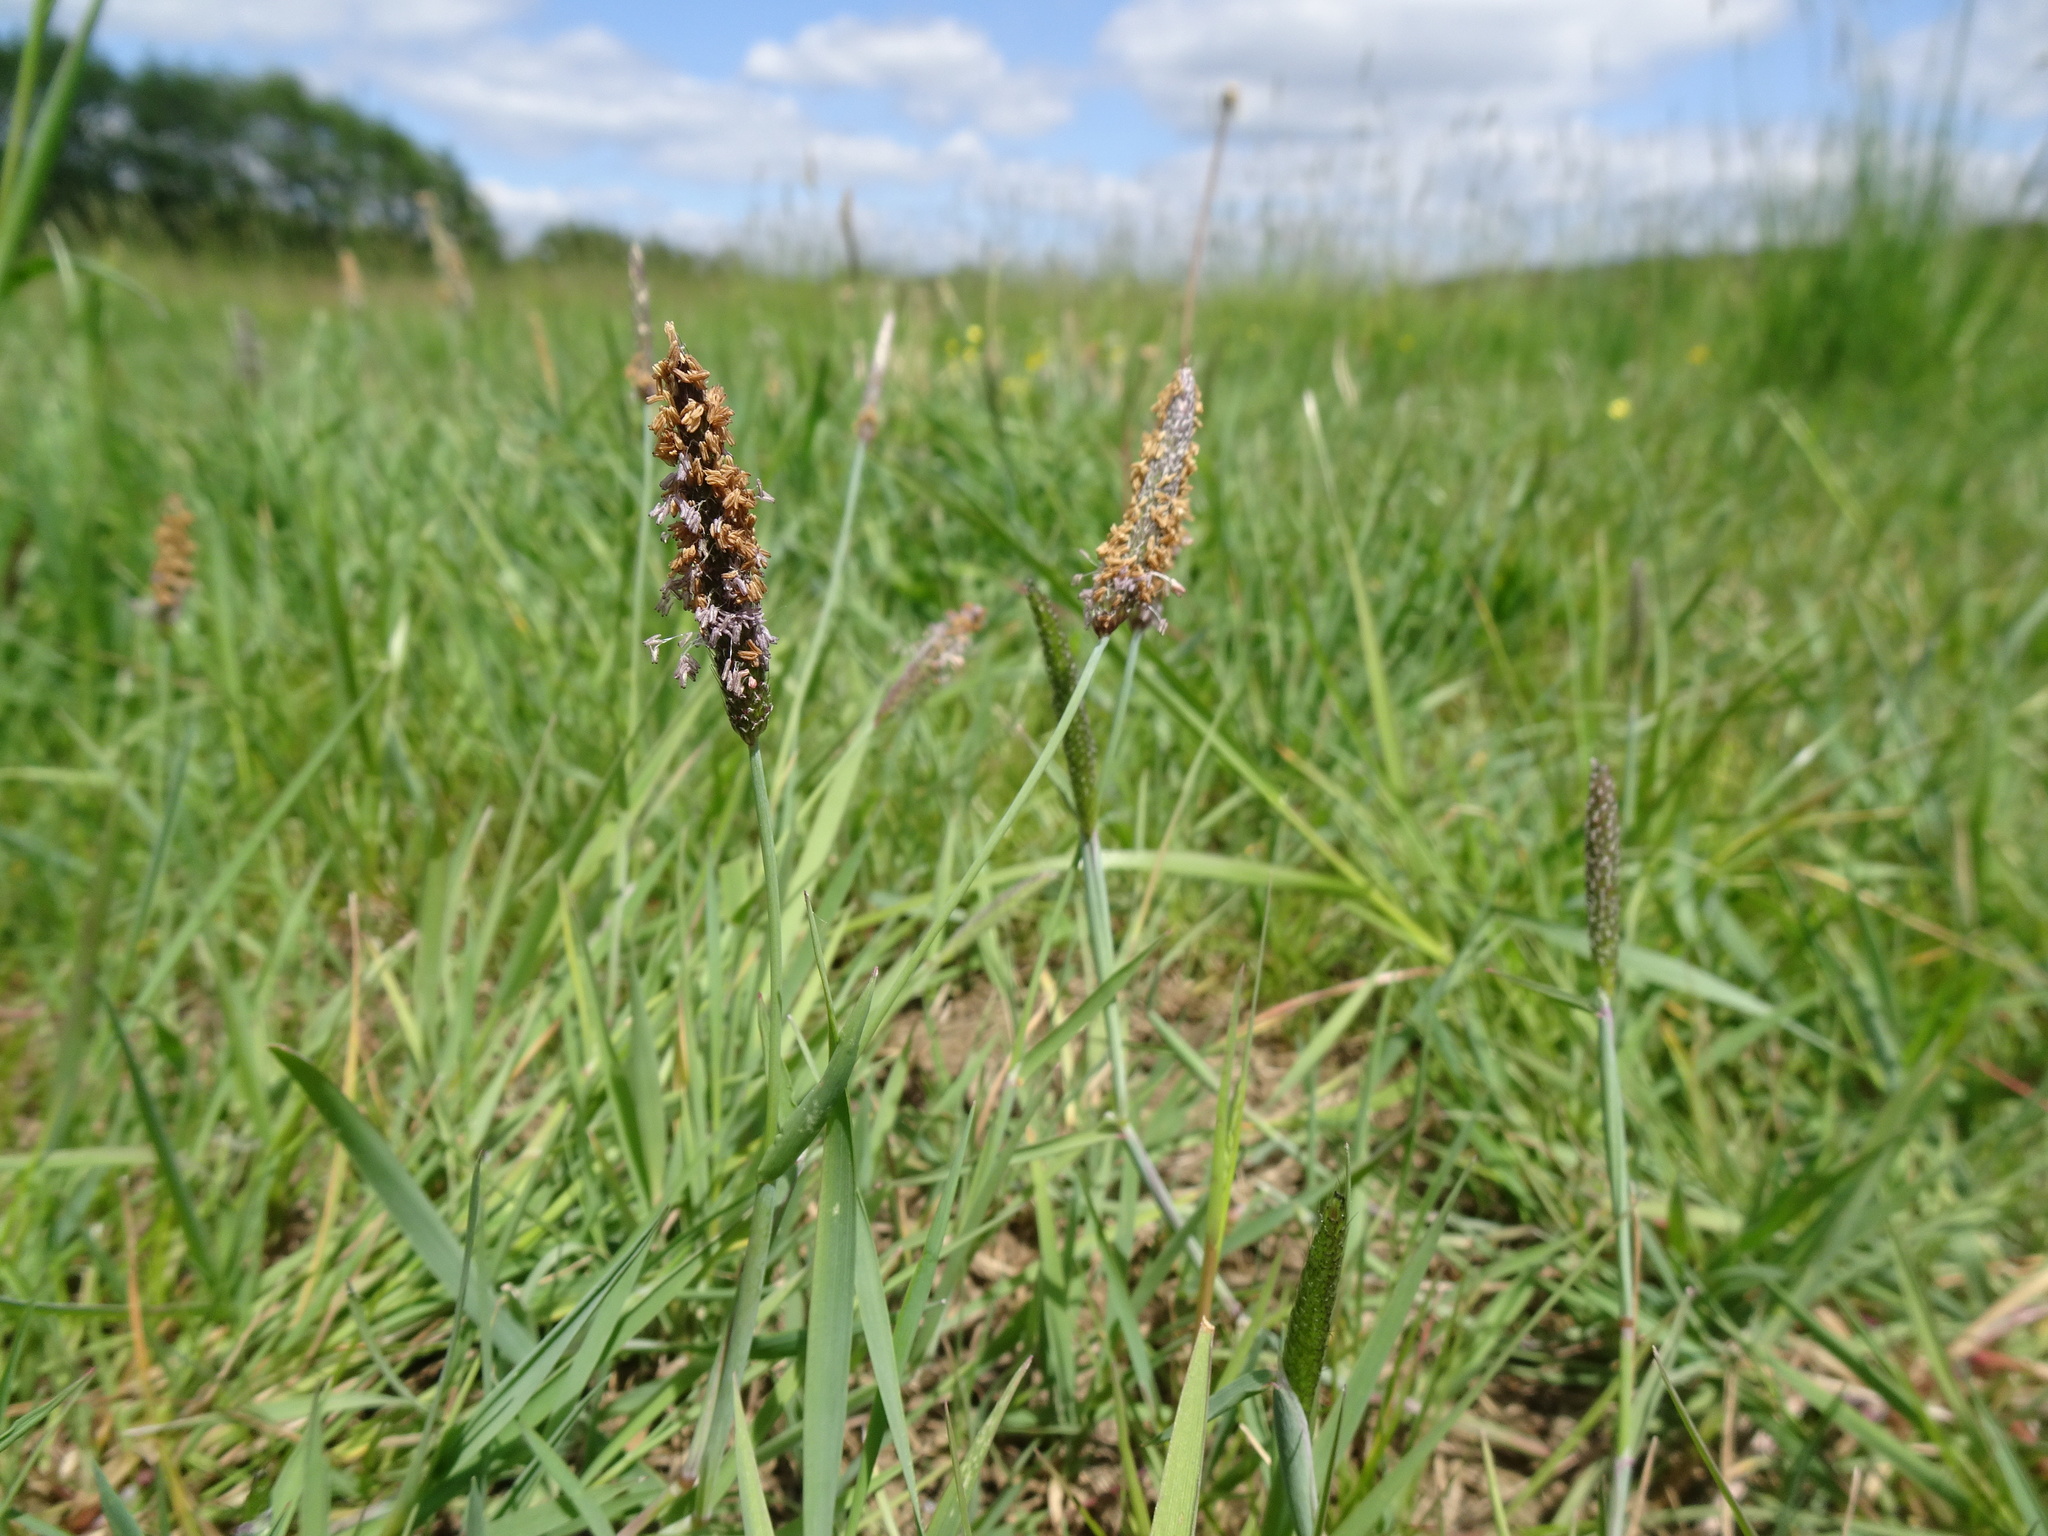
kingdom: Plantae
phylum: Tracheophyta
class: Liliopsida
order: Poales
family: Poaceae
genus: Alopecurus
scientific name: Alopecurus geniculatus
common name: Water foxtail
